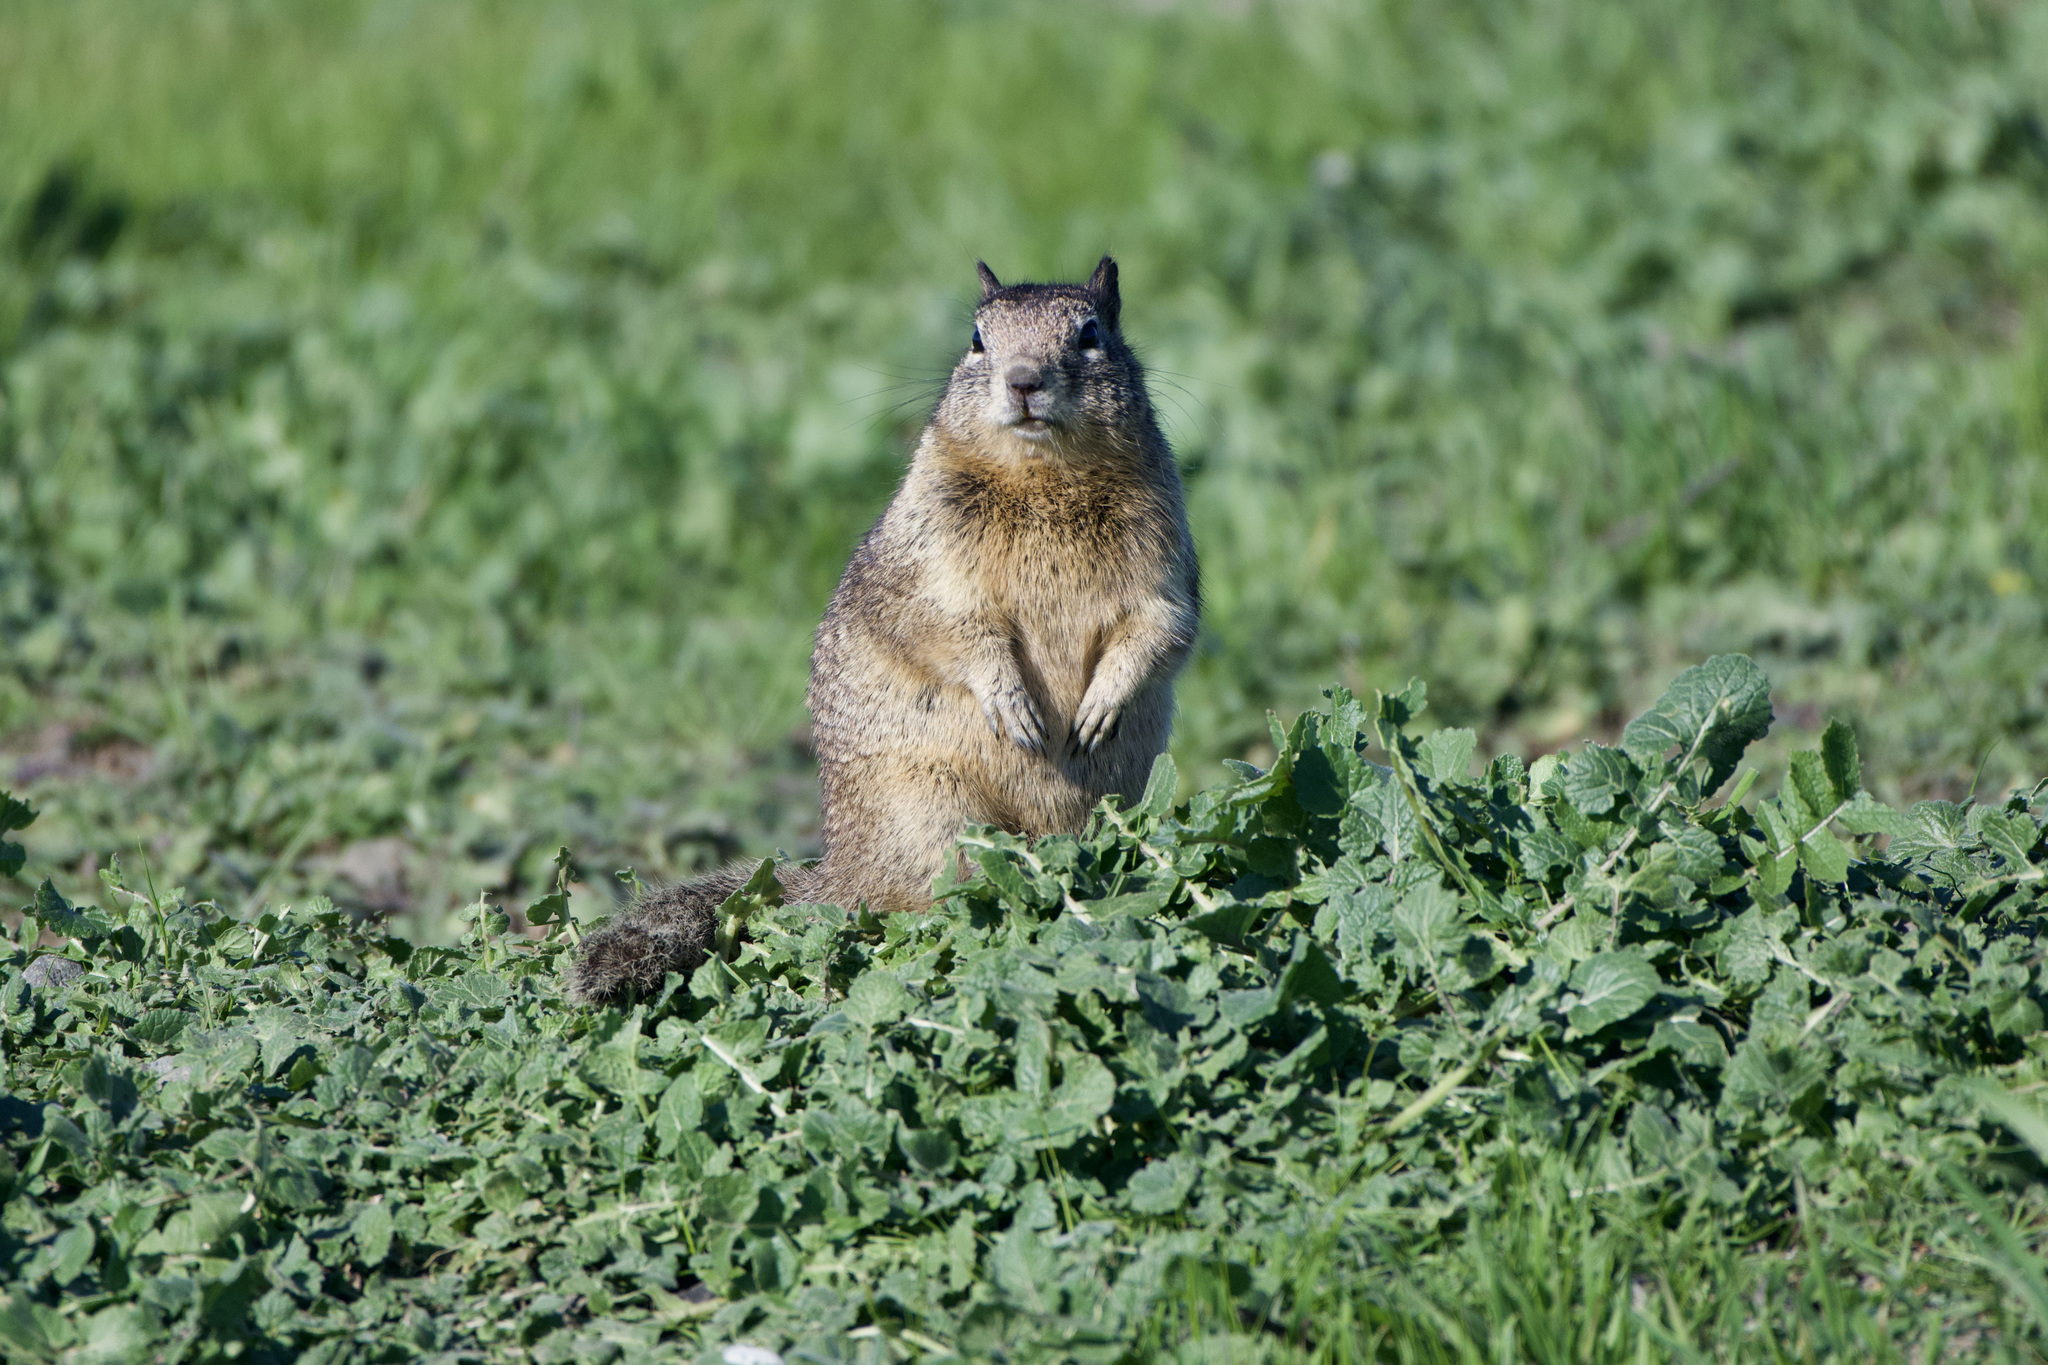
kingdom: Animalia
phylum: Chordata
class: Mammalia
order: Rodentia
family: Sciuridae
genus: Otospermophilus
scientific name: Otospermophilus beecheyi
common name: California ground squirrel
